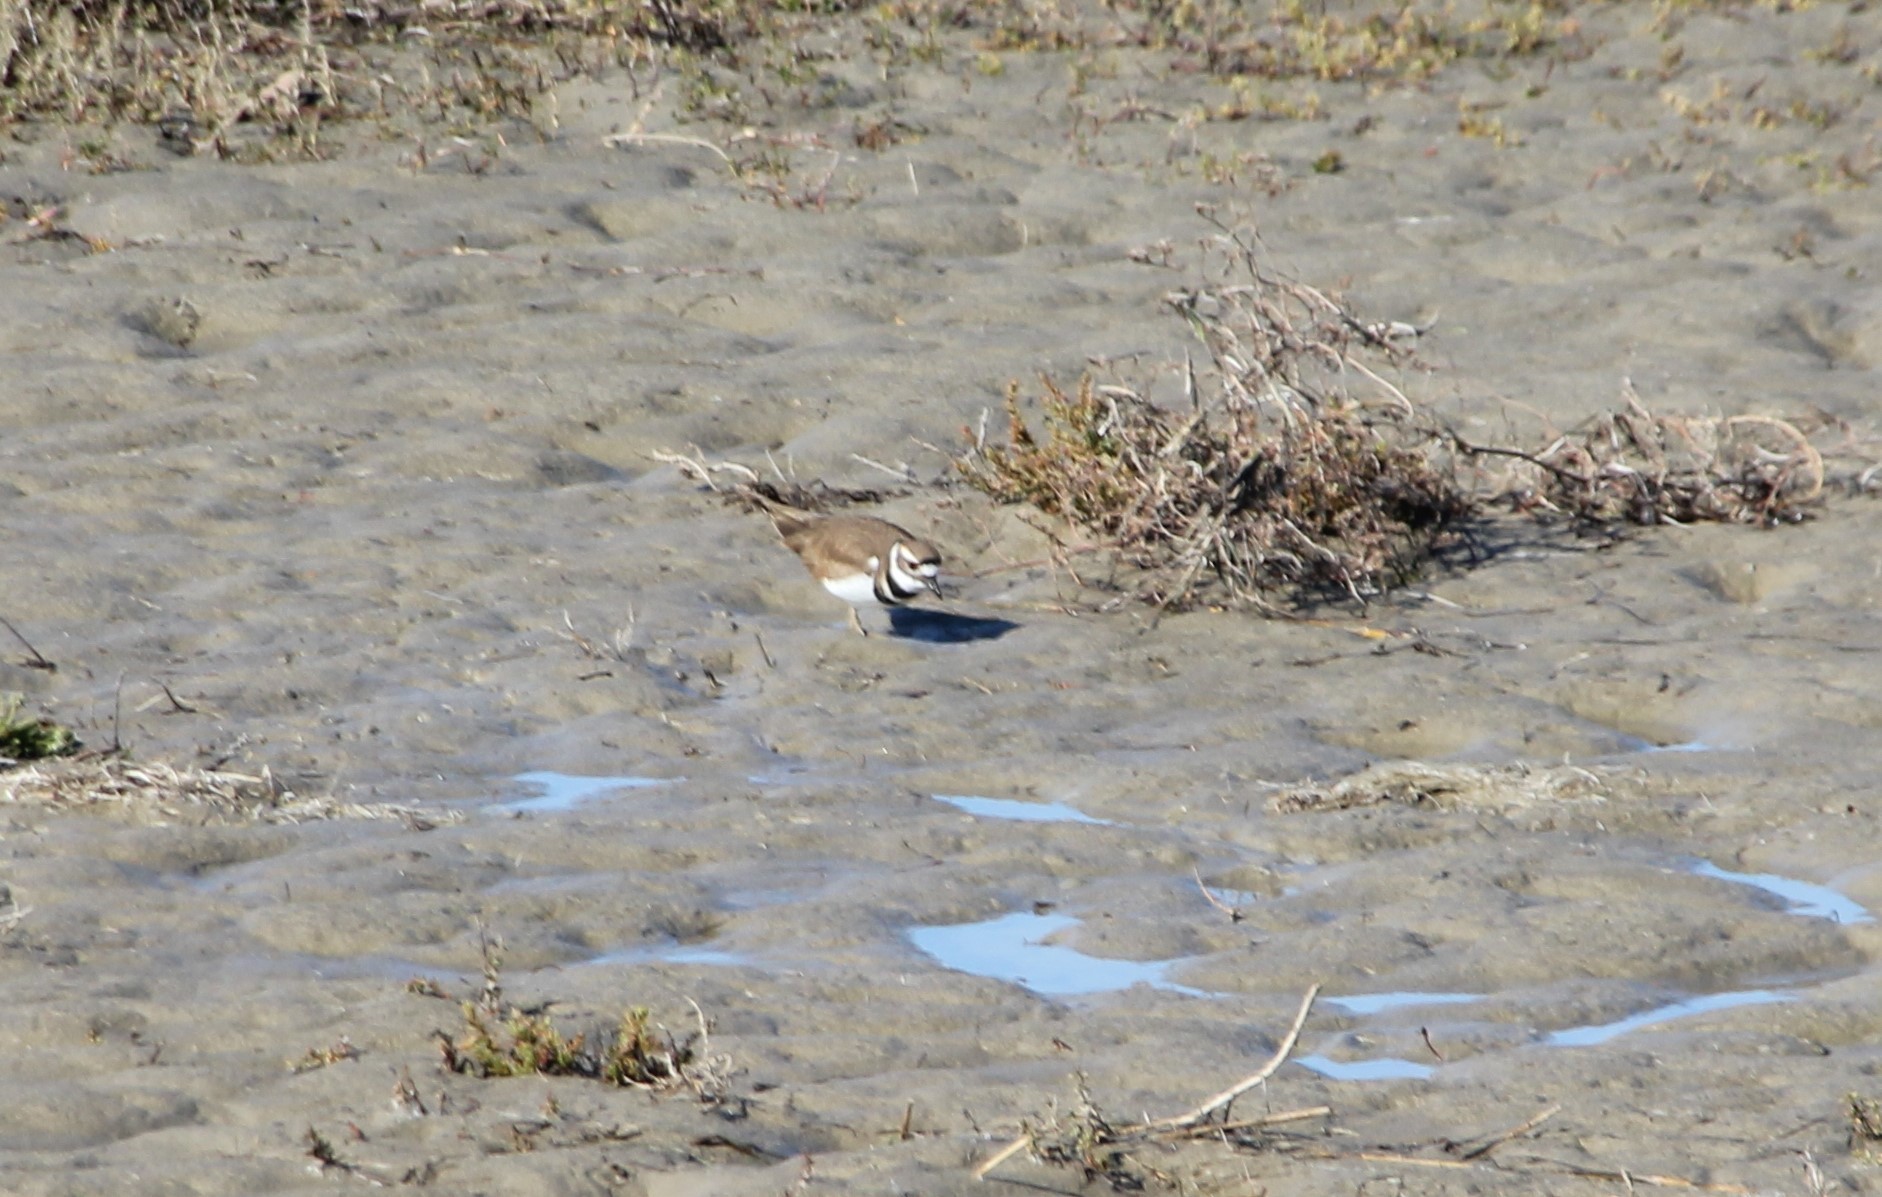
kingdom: Animalia
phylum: Chordata
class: Aves
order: Charadriiformes
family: Charadriidae
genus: Charadrius
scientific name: Charadrius vociferus
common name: Killdeer
